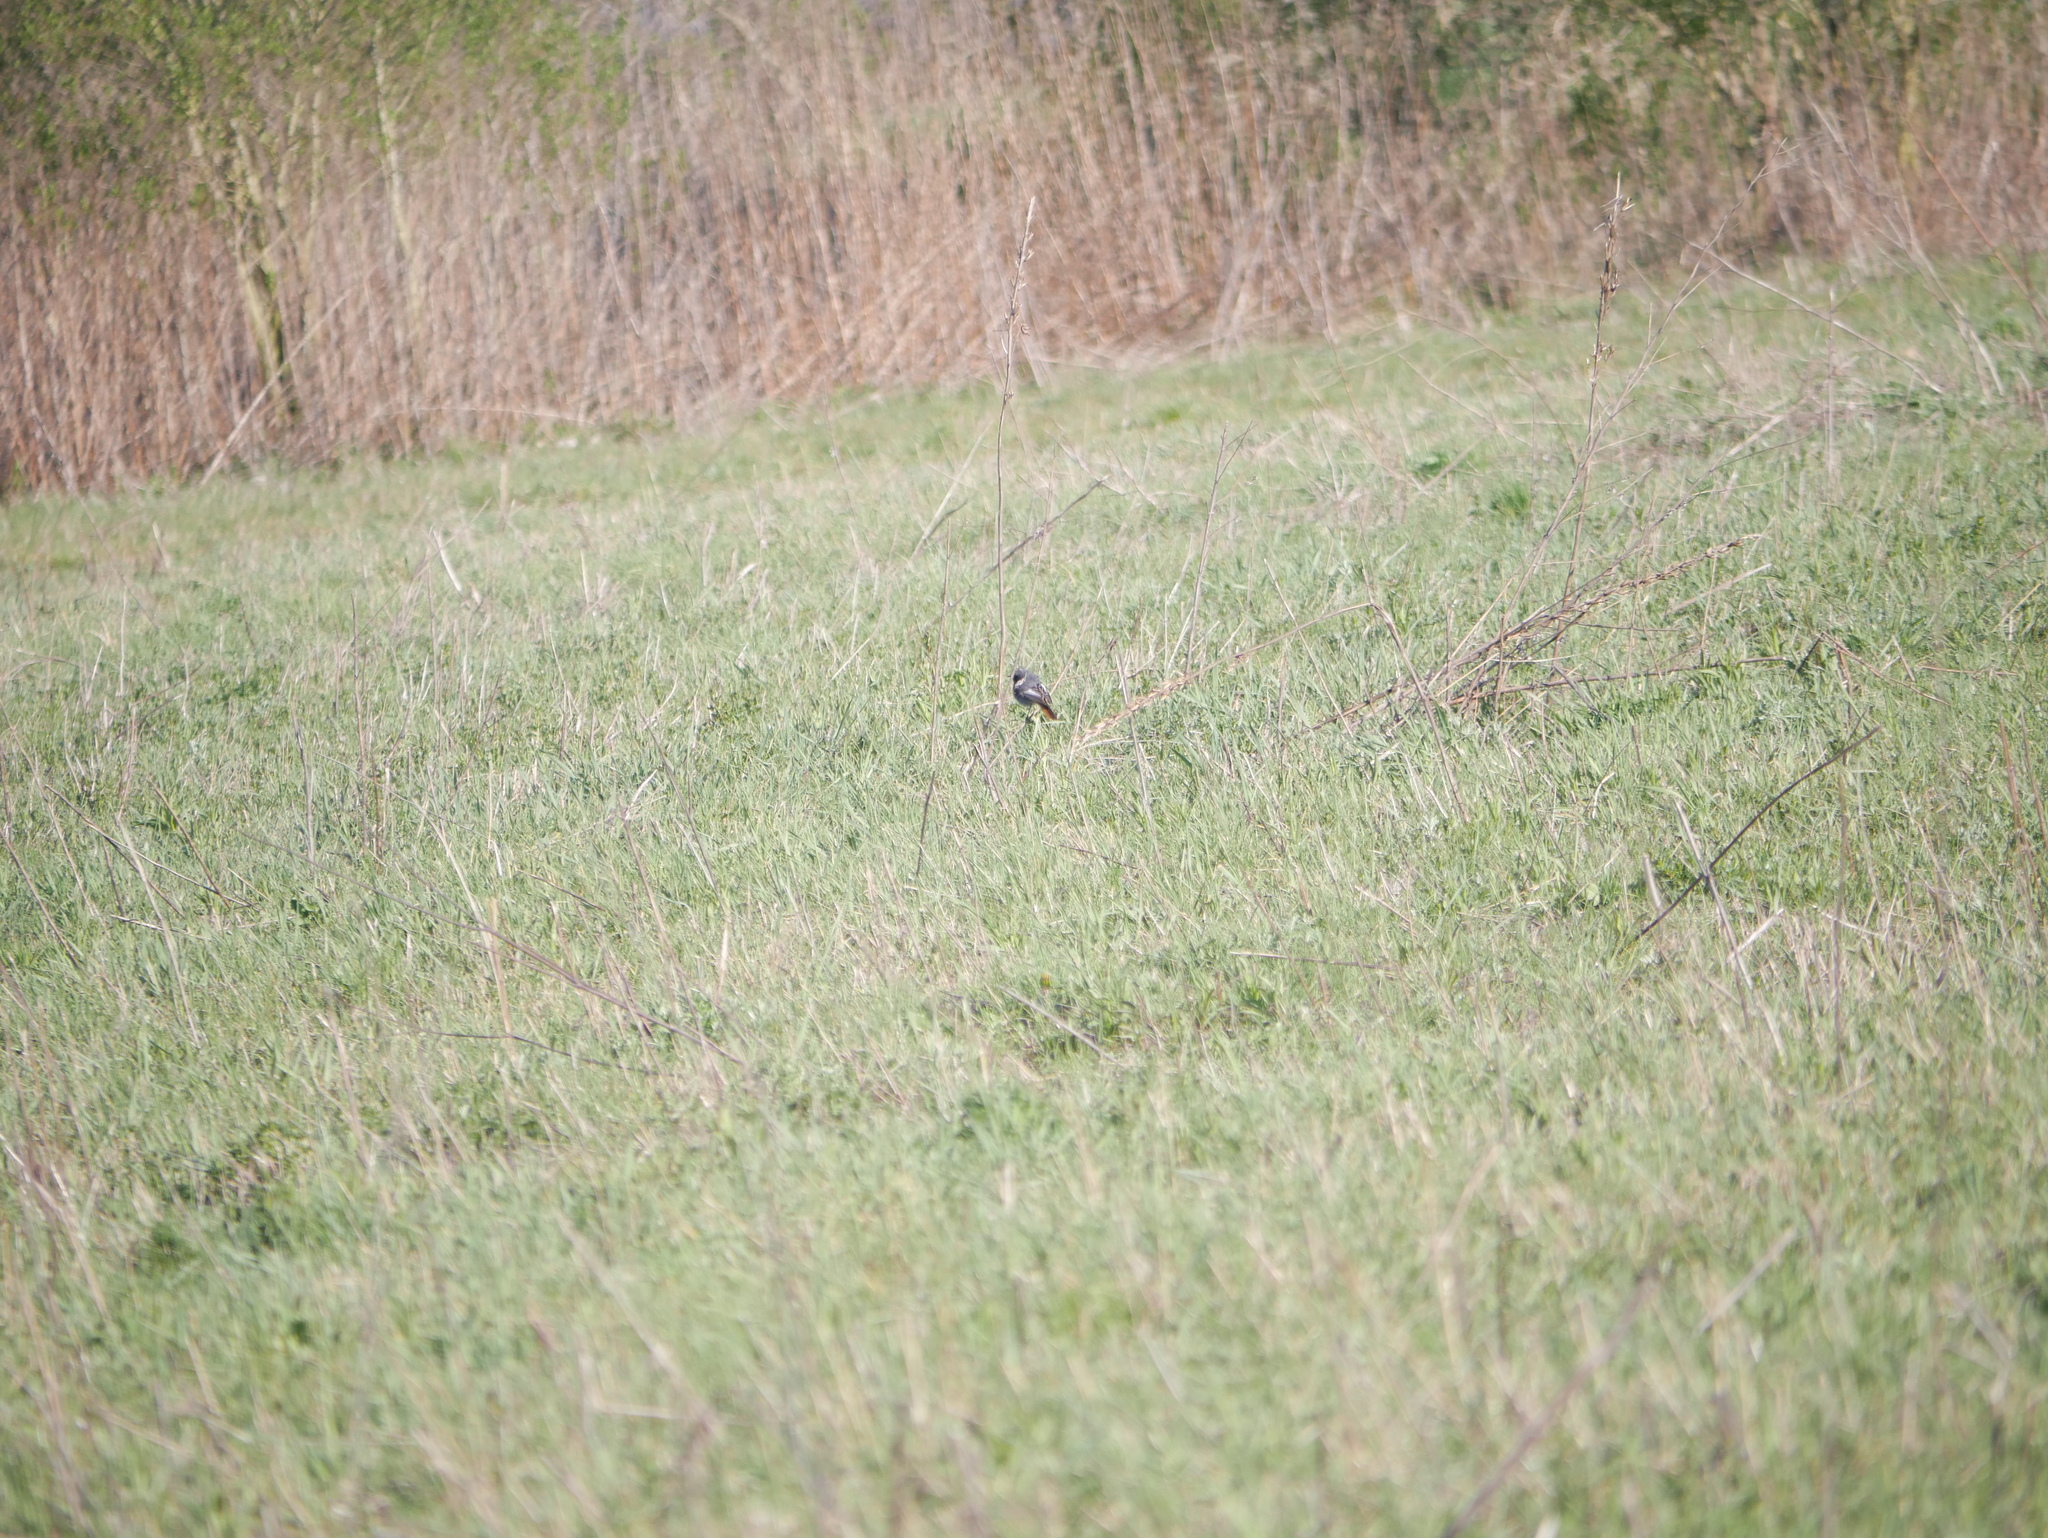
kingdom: Animalia
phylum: Chordata
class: Aves
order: Passeriformes
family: Muscicapidae
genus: Phoenicurus
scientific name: Phoenicurus ochruros
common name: Black redstart
